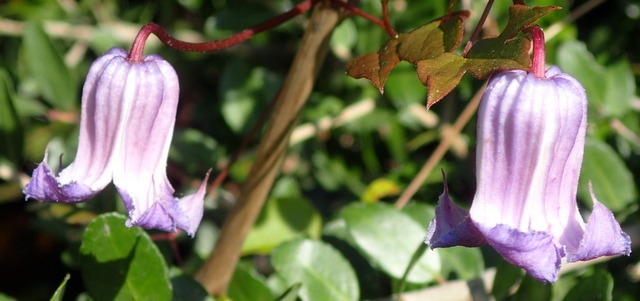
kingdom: Plantae
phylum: Tracheophyta
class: Magnoliopsida
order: Ranunculales
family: Ranunculaceae
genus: Clematis
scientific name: Clematis crispa
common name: Curly clematis
